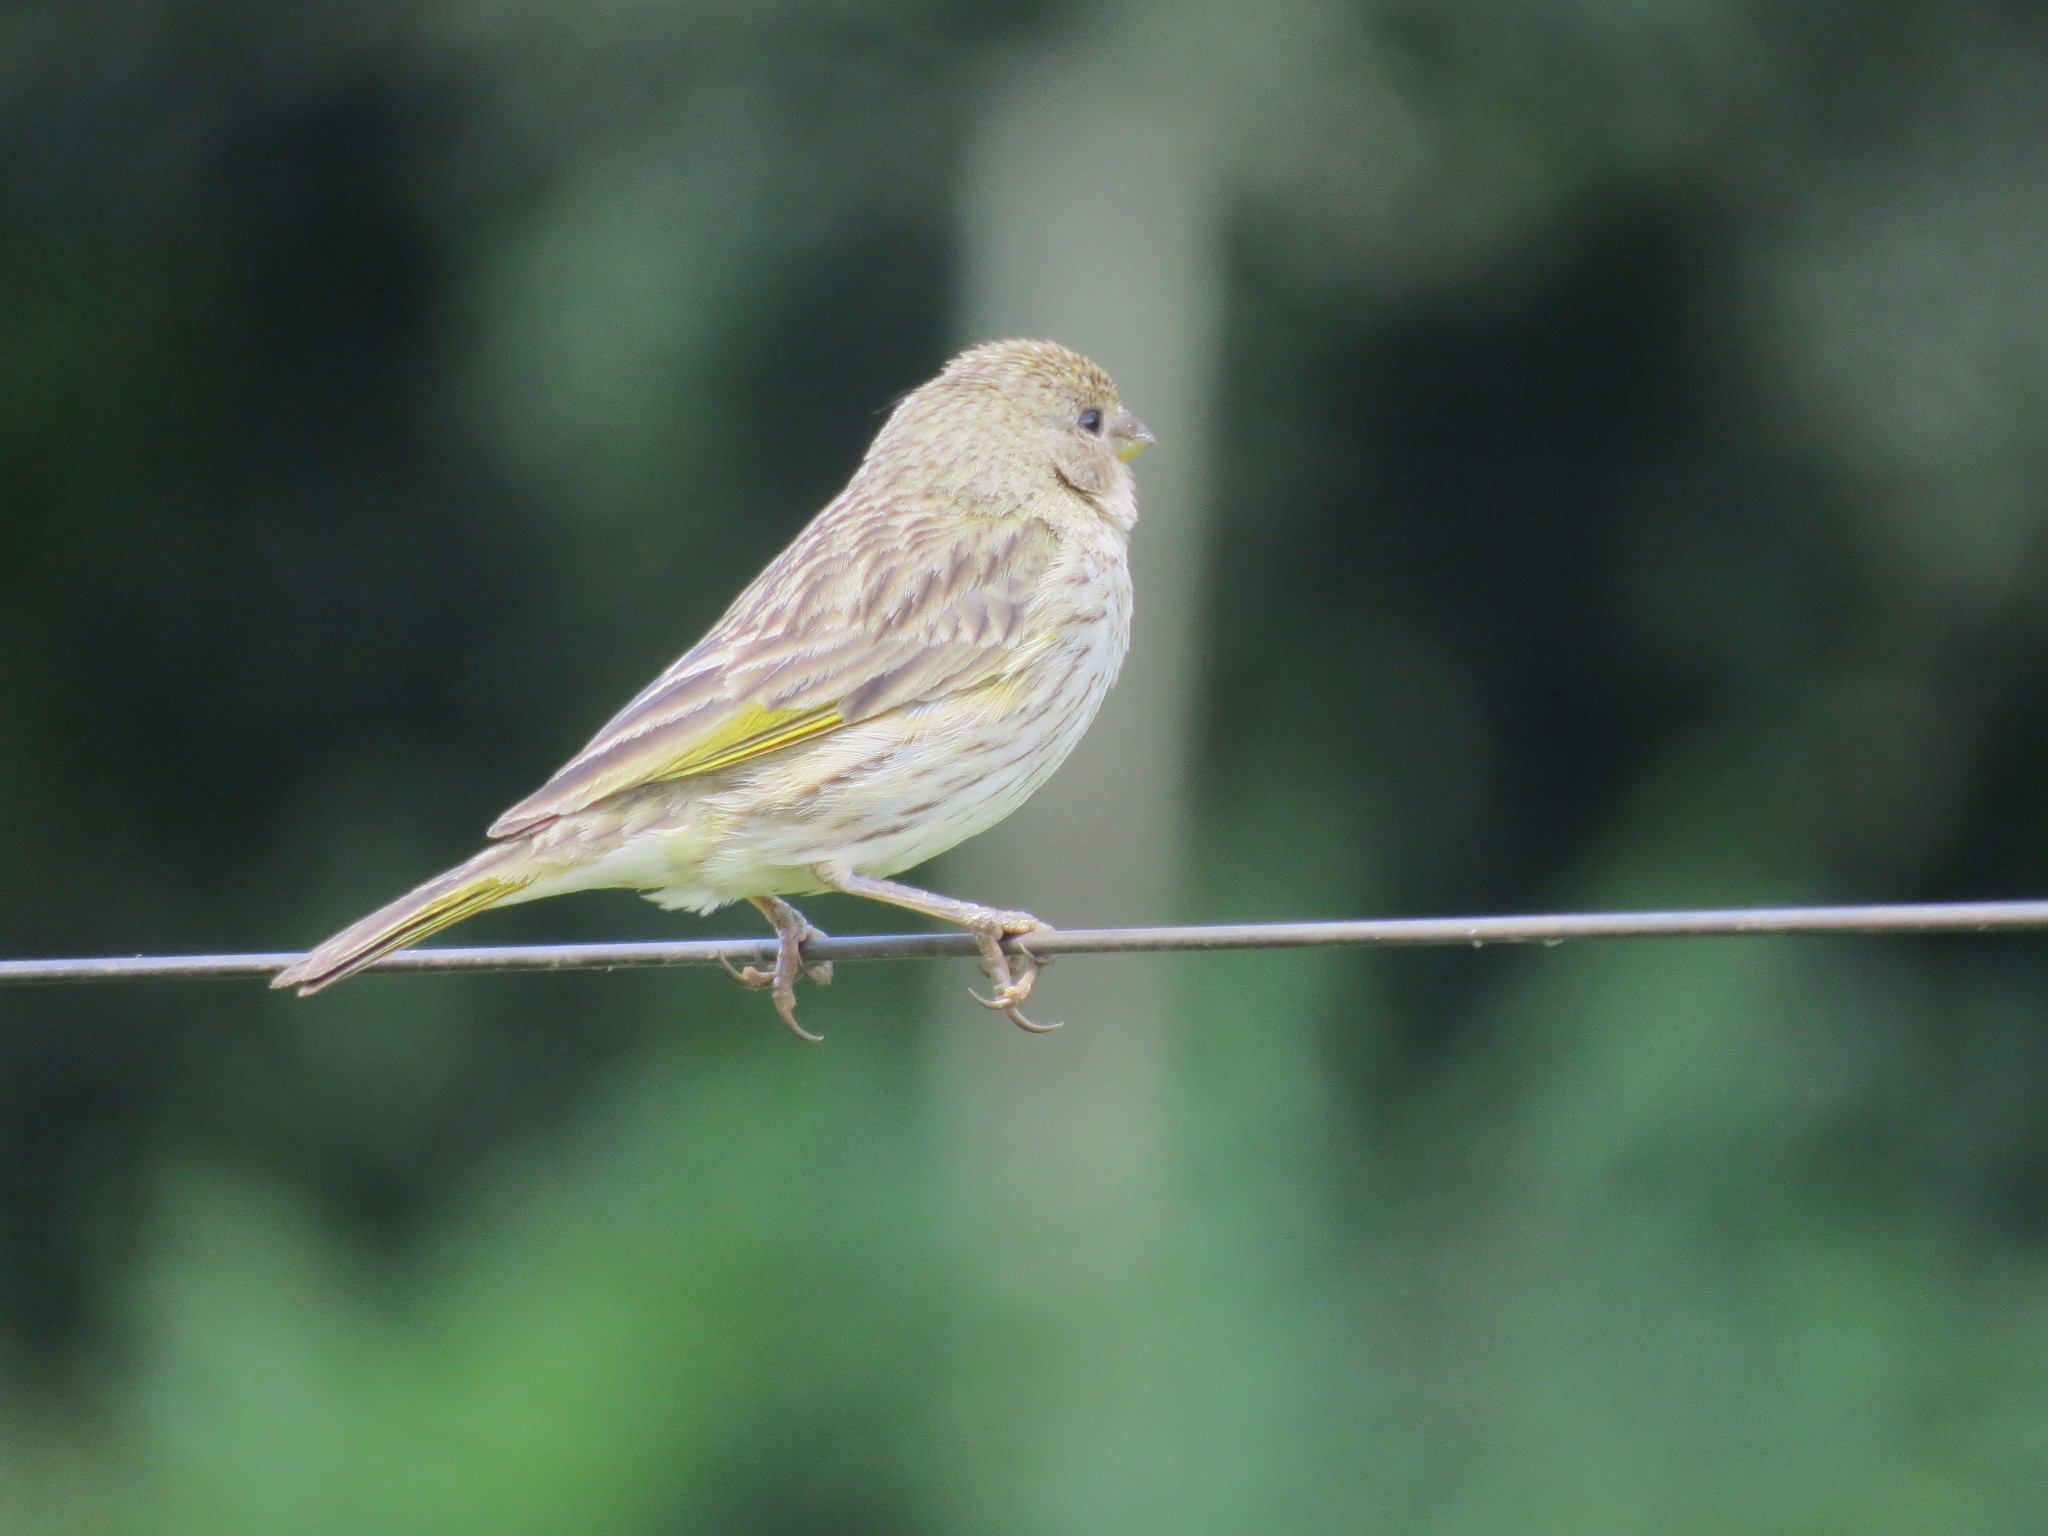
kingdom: Animalia
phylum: Chordata
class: Aves
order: Passeriformes
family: Thraupidae
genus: Sicalis
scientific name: Sicalis flaveola
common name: Saffron finch
